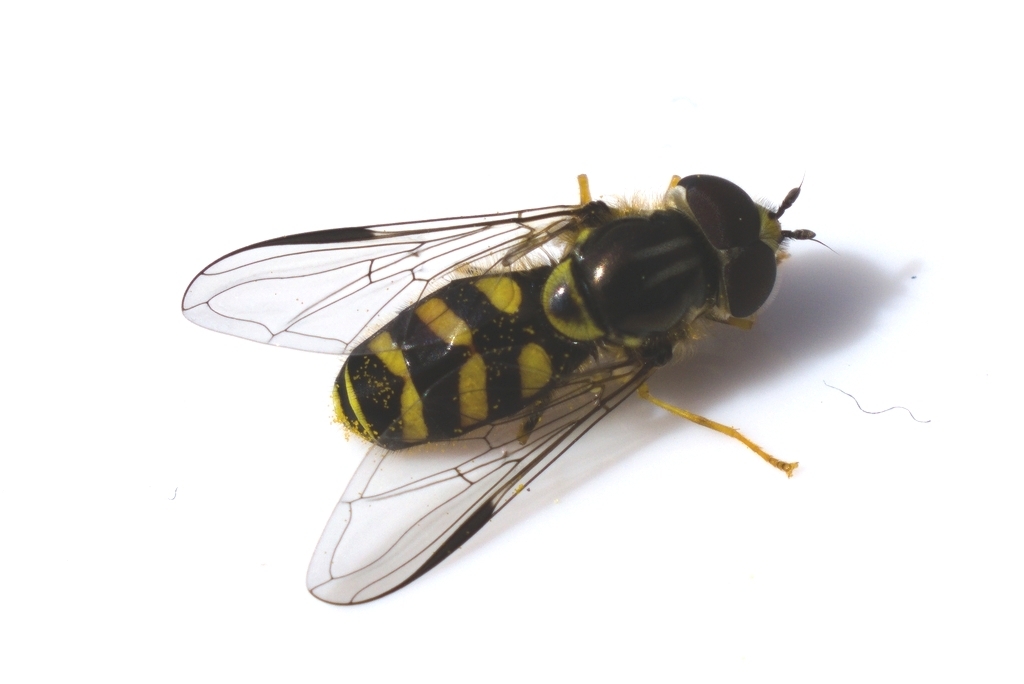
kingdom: Animalia
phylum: Arthropoda
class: Insecta
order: Diptera
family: Syrphidae
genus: Dasysyrphus
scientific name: Dasysyrphus albostriatus
